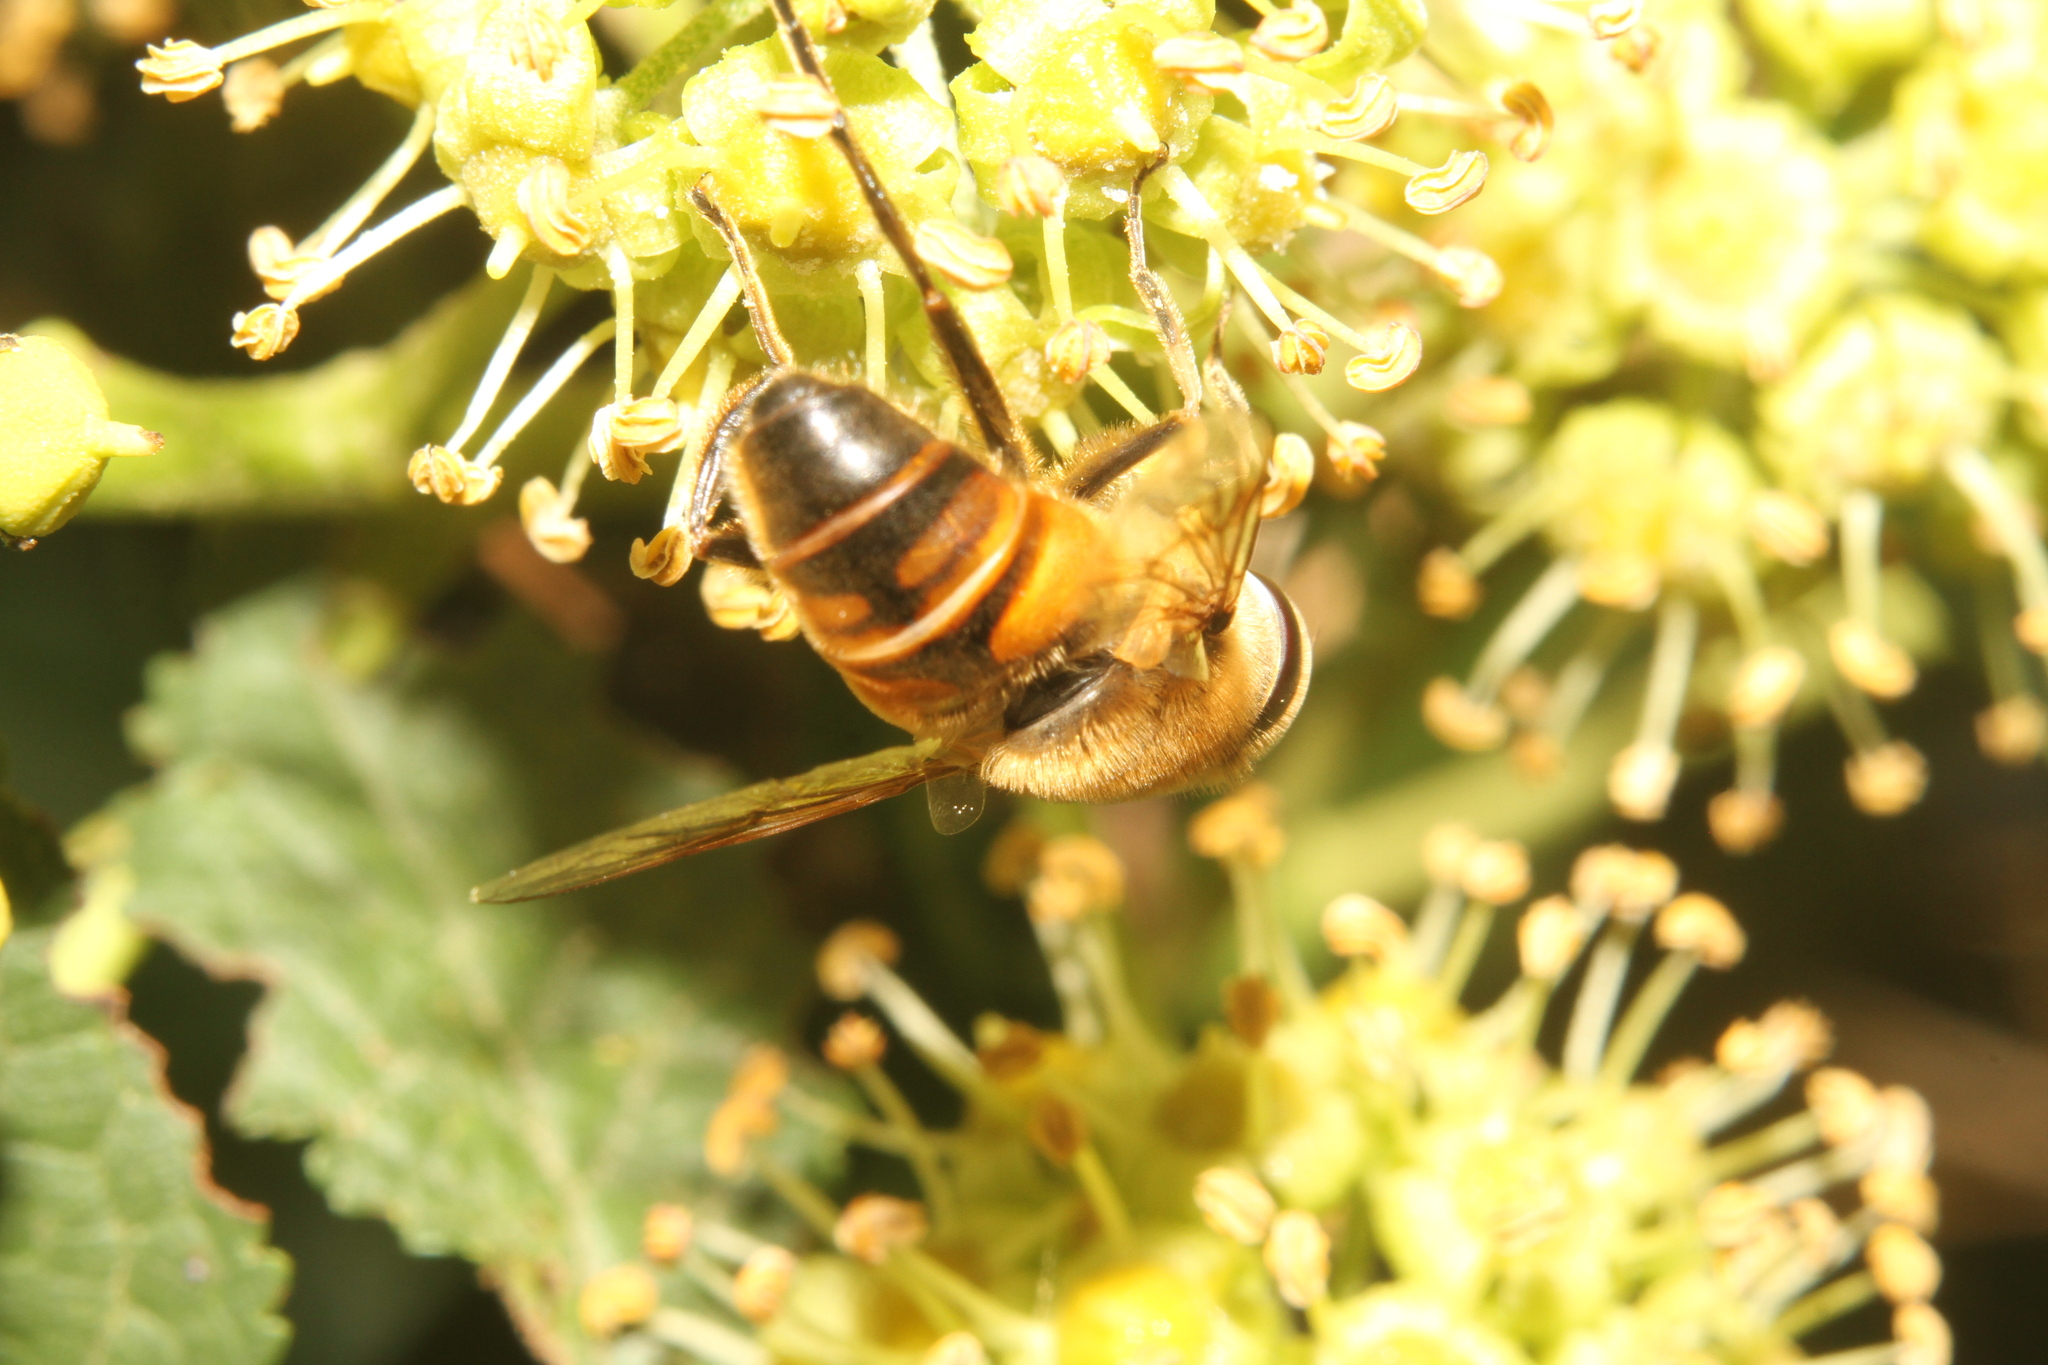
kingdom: Animalia
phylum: Arthropoda
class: Insecta
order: Diptera
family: Syrphidae
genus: Eristalis
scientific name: Eristalis tenax
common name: Drone fly
